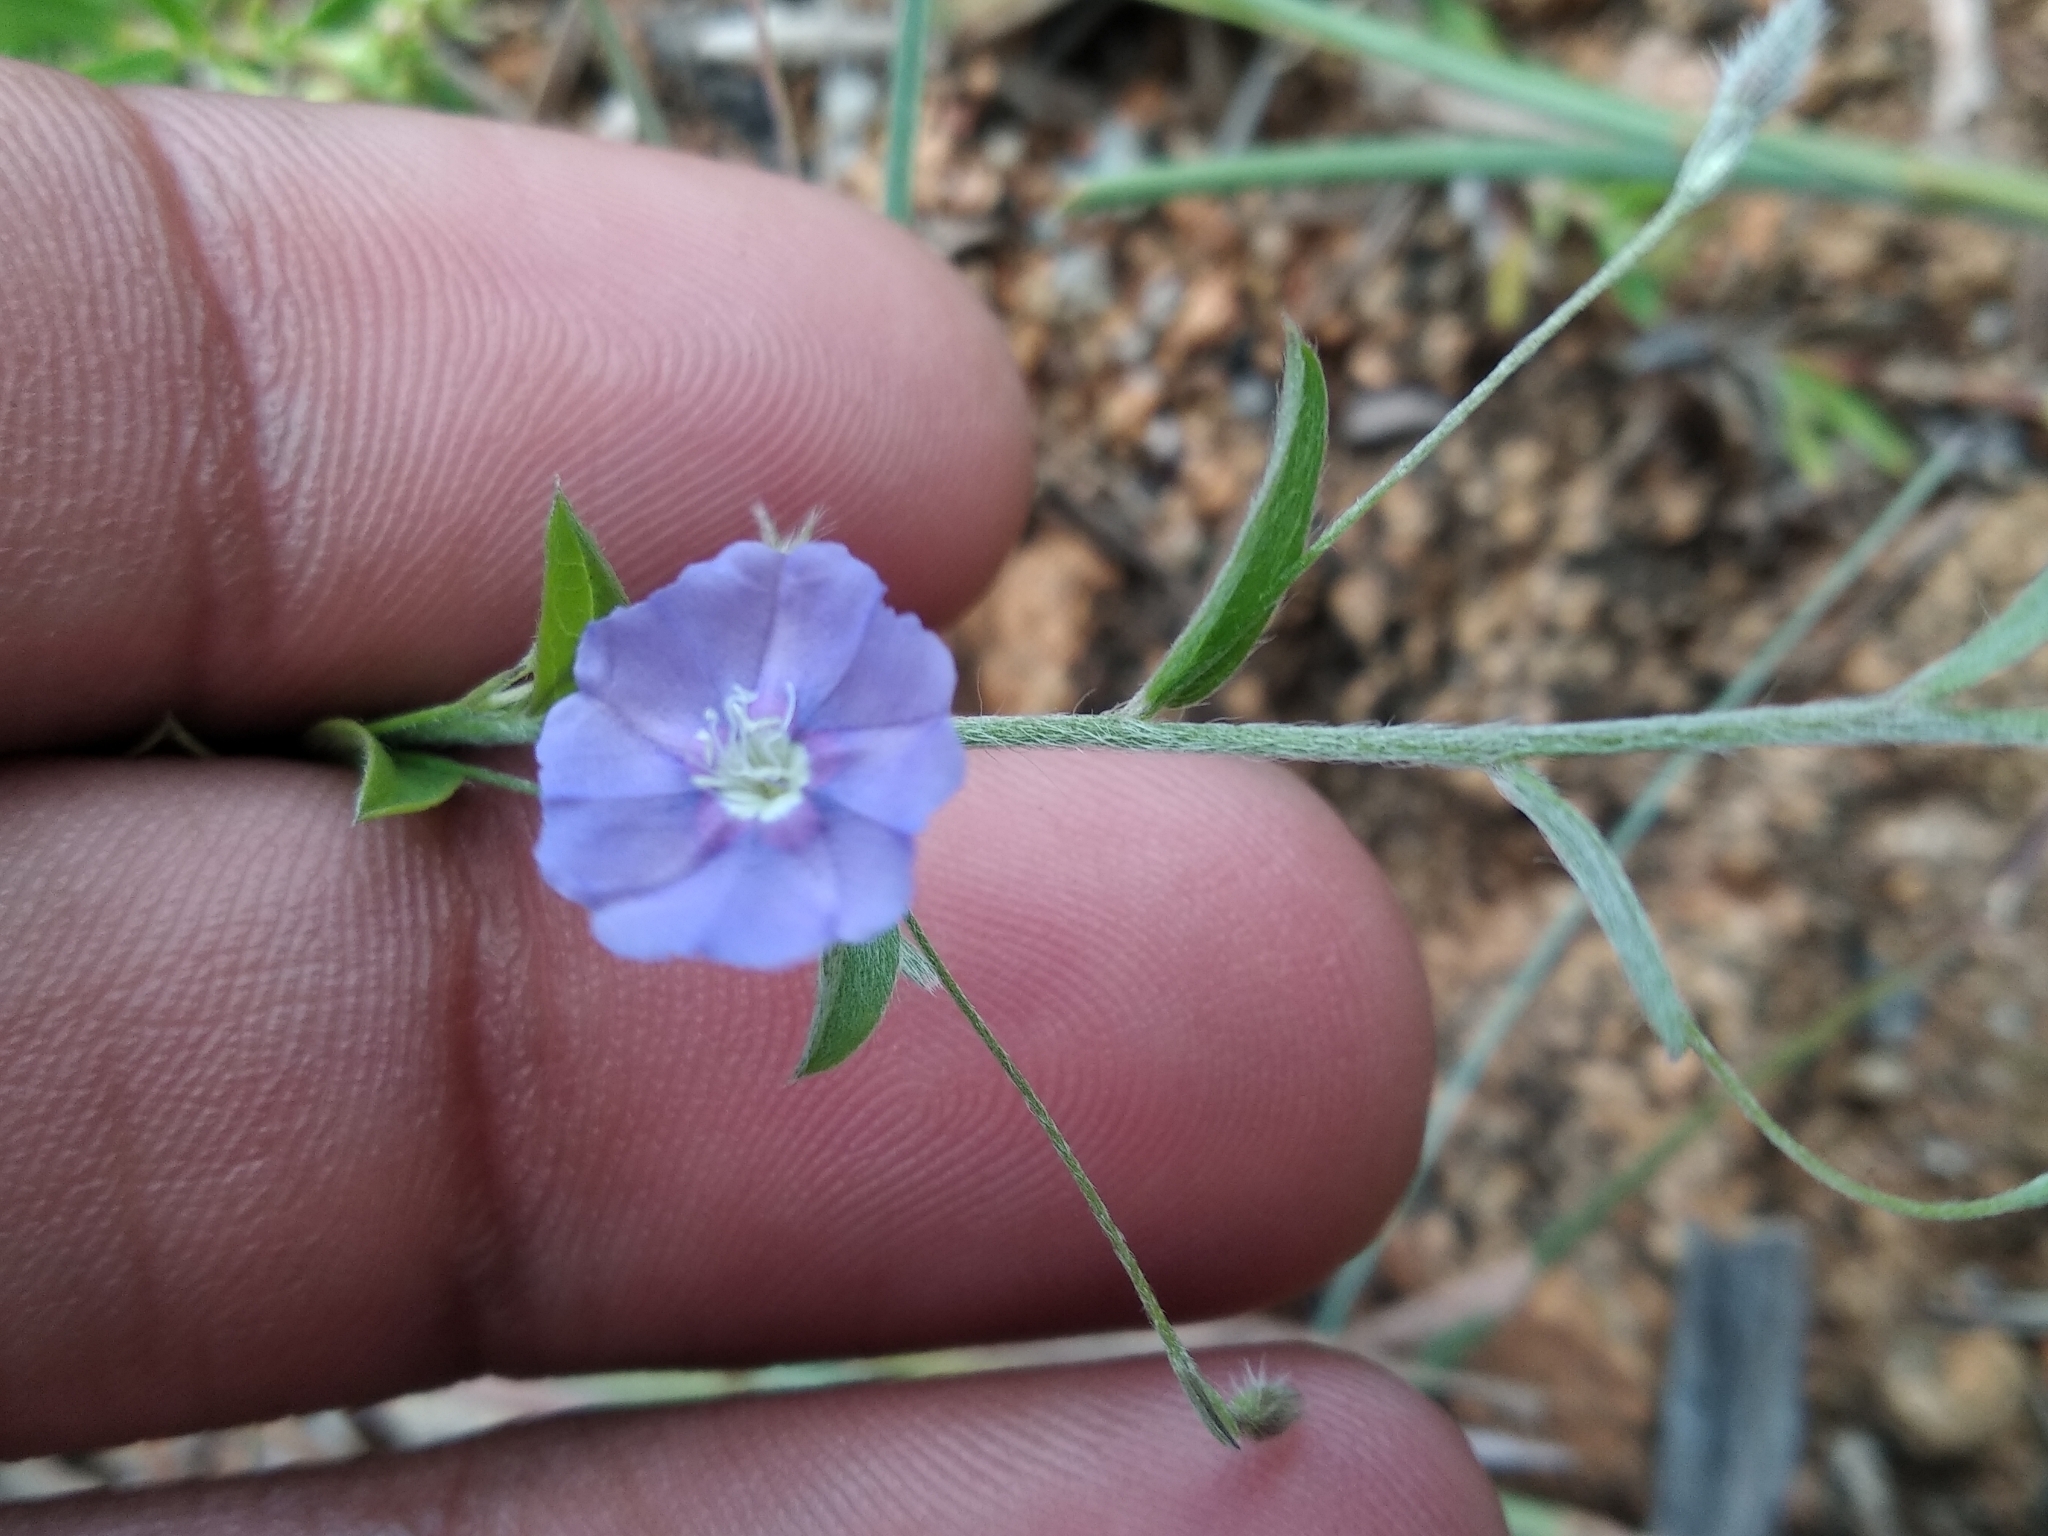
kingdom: Plantae
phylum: Tracheophyta
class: Magnoliopsida
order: Solanales
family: Convolvulaceae
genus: Evolvulus
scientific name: Evolvulus alsinoides
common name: Slender dwarf morning-glory
